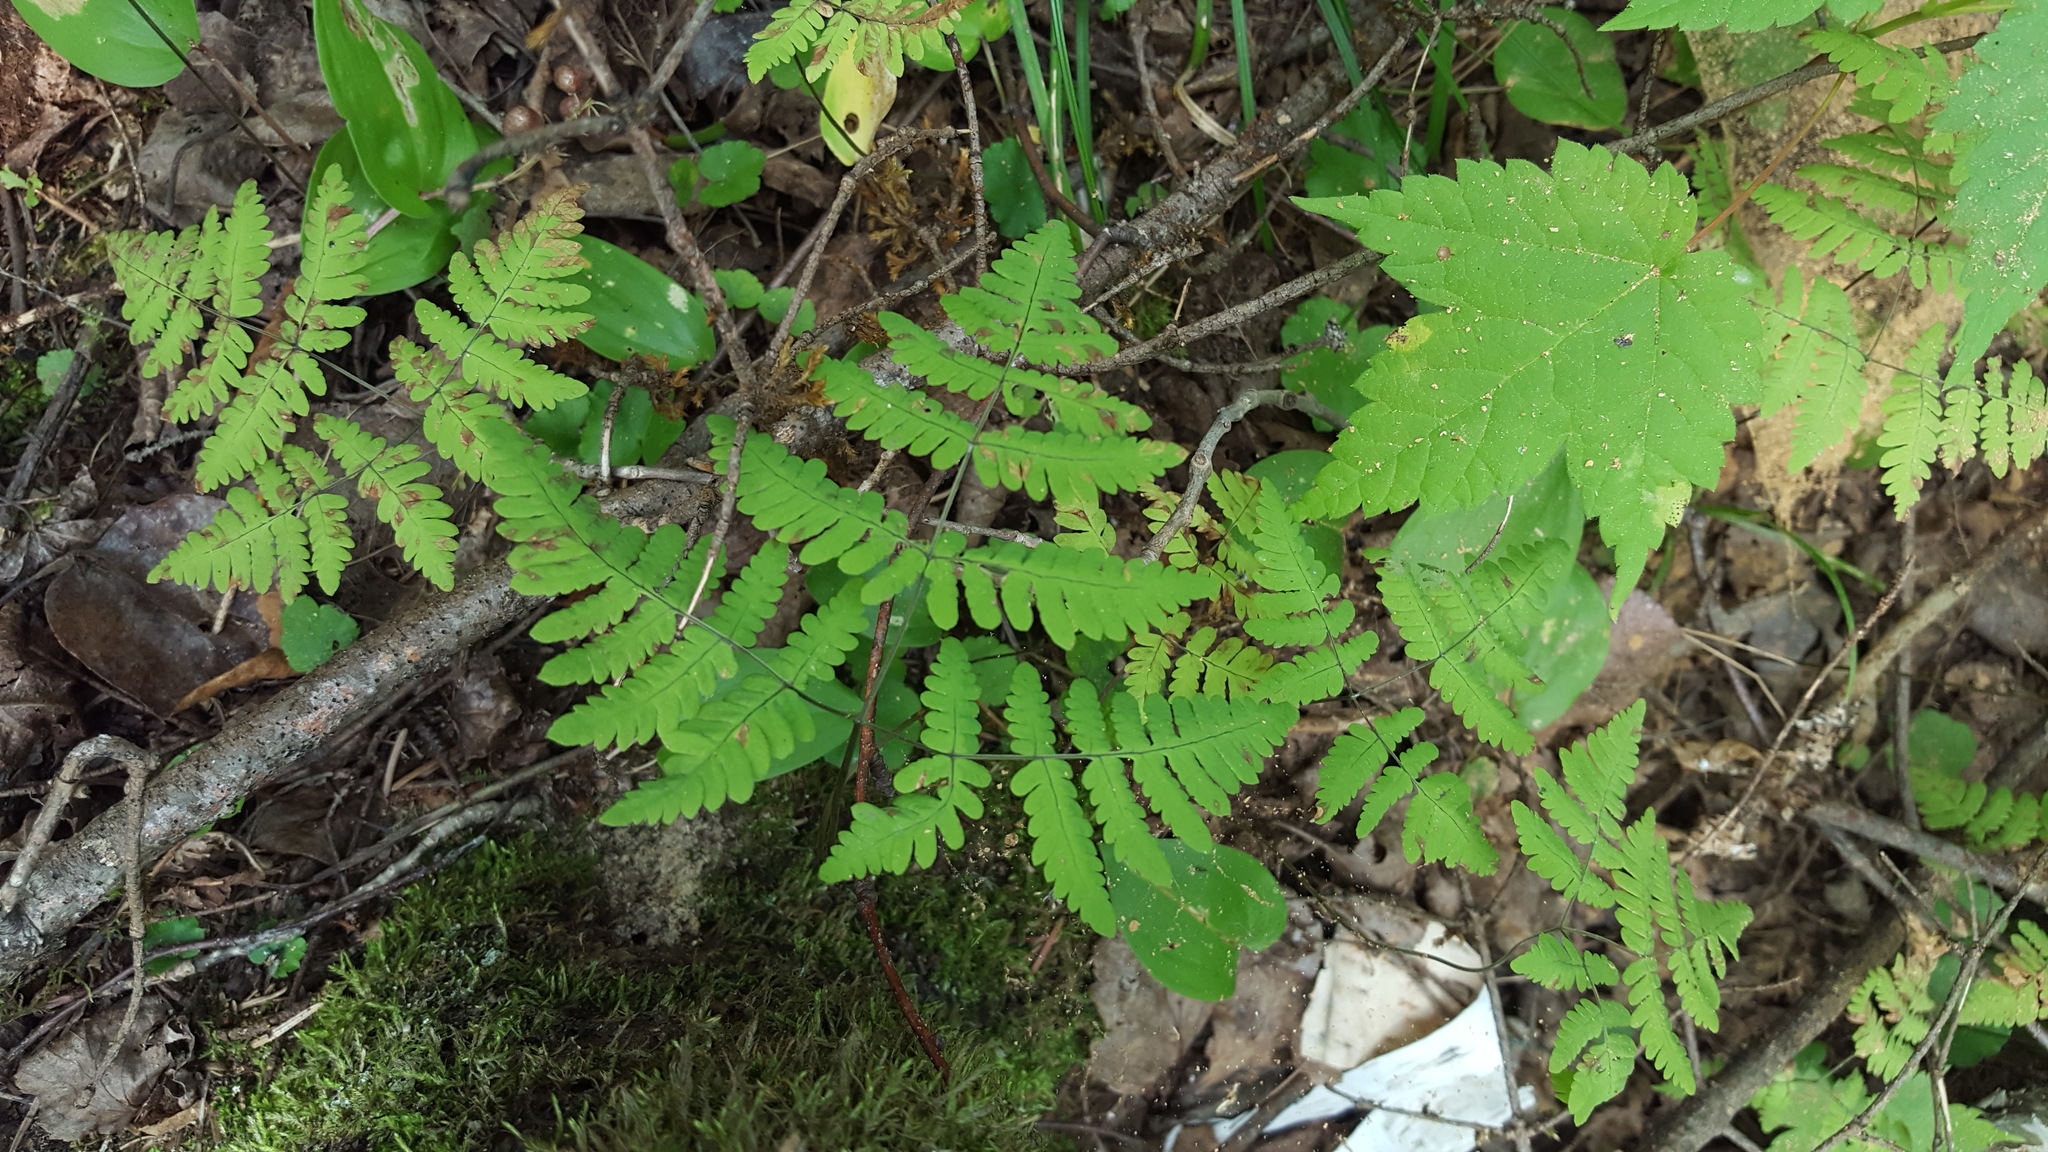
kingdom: Plantae
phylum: Tracheophyta
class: Polypodiopsida
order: Polypodiales
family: Cystopteridaceae
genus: Gymnocarpium
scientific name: Gymnocarpium dryopteris
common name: Oak fern
